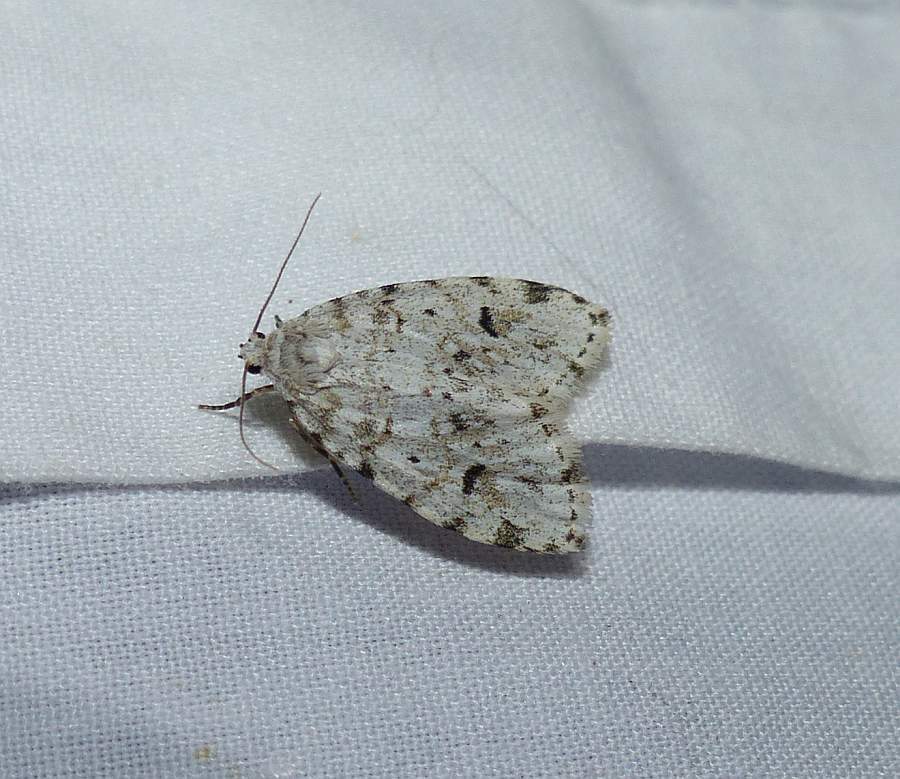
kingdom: Animalia
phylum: Arthropoda
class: Insecta
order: Lepidoptera
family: Erebidae
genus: Clemensia
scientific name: Clemensia albata
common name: Little white lichen moth
